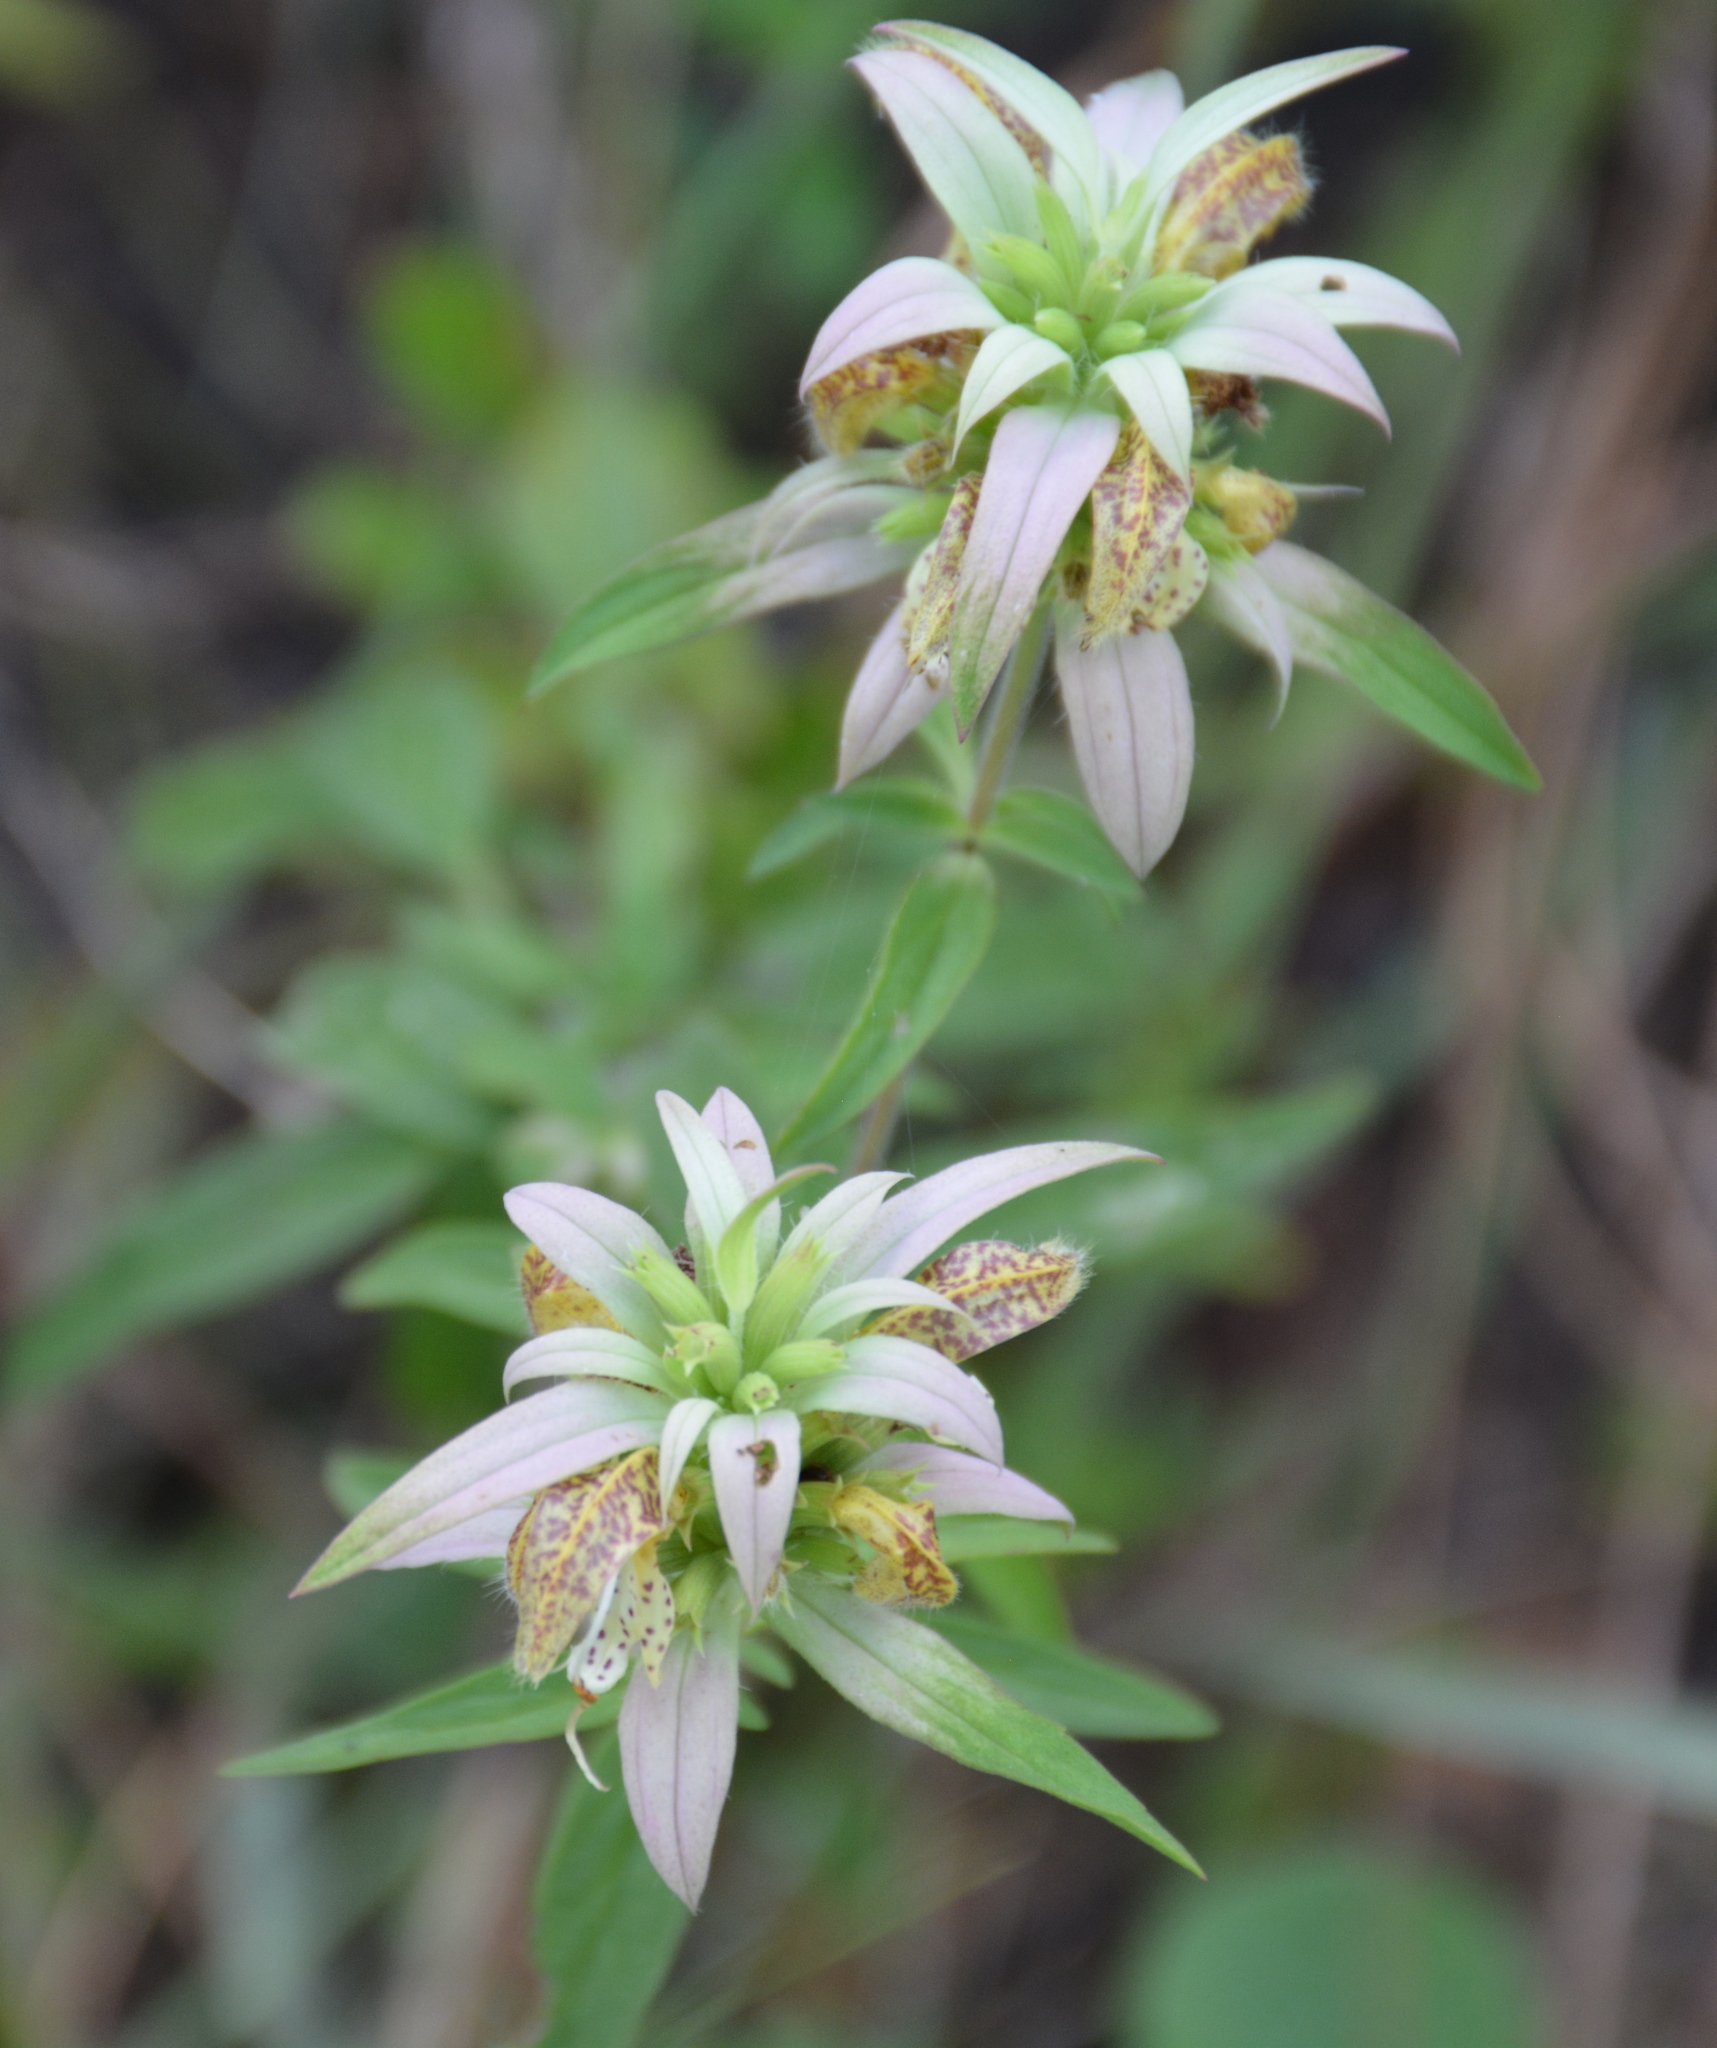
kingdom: Plantae
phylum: Tracheophyta
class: Magnoliopsida
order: Lamiales
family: Lamiaceae
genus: Monarda
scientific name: Monarda punctata
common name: Dotted monarda
